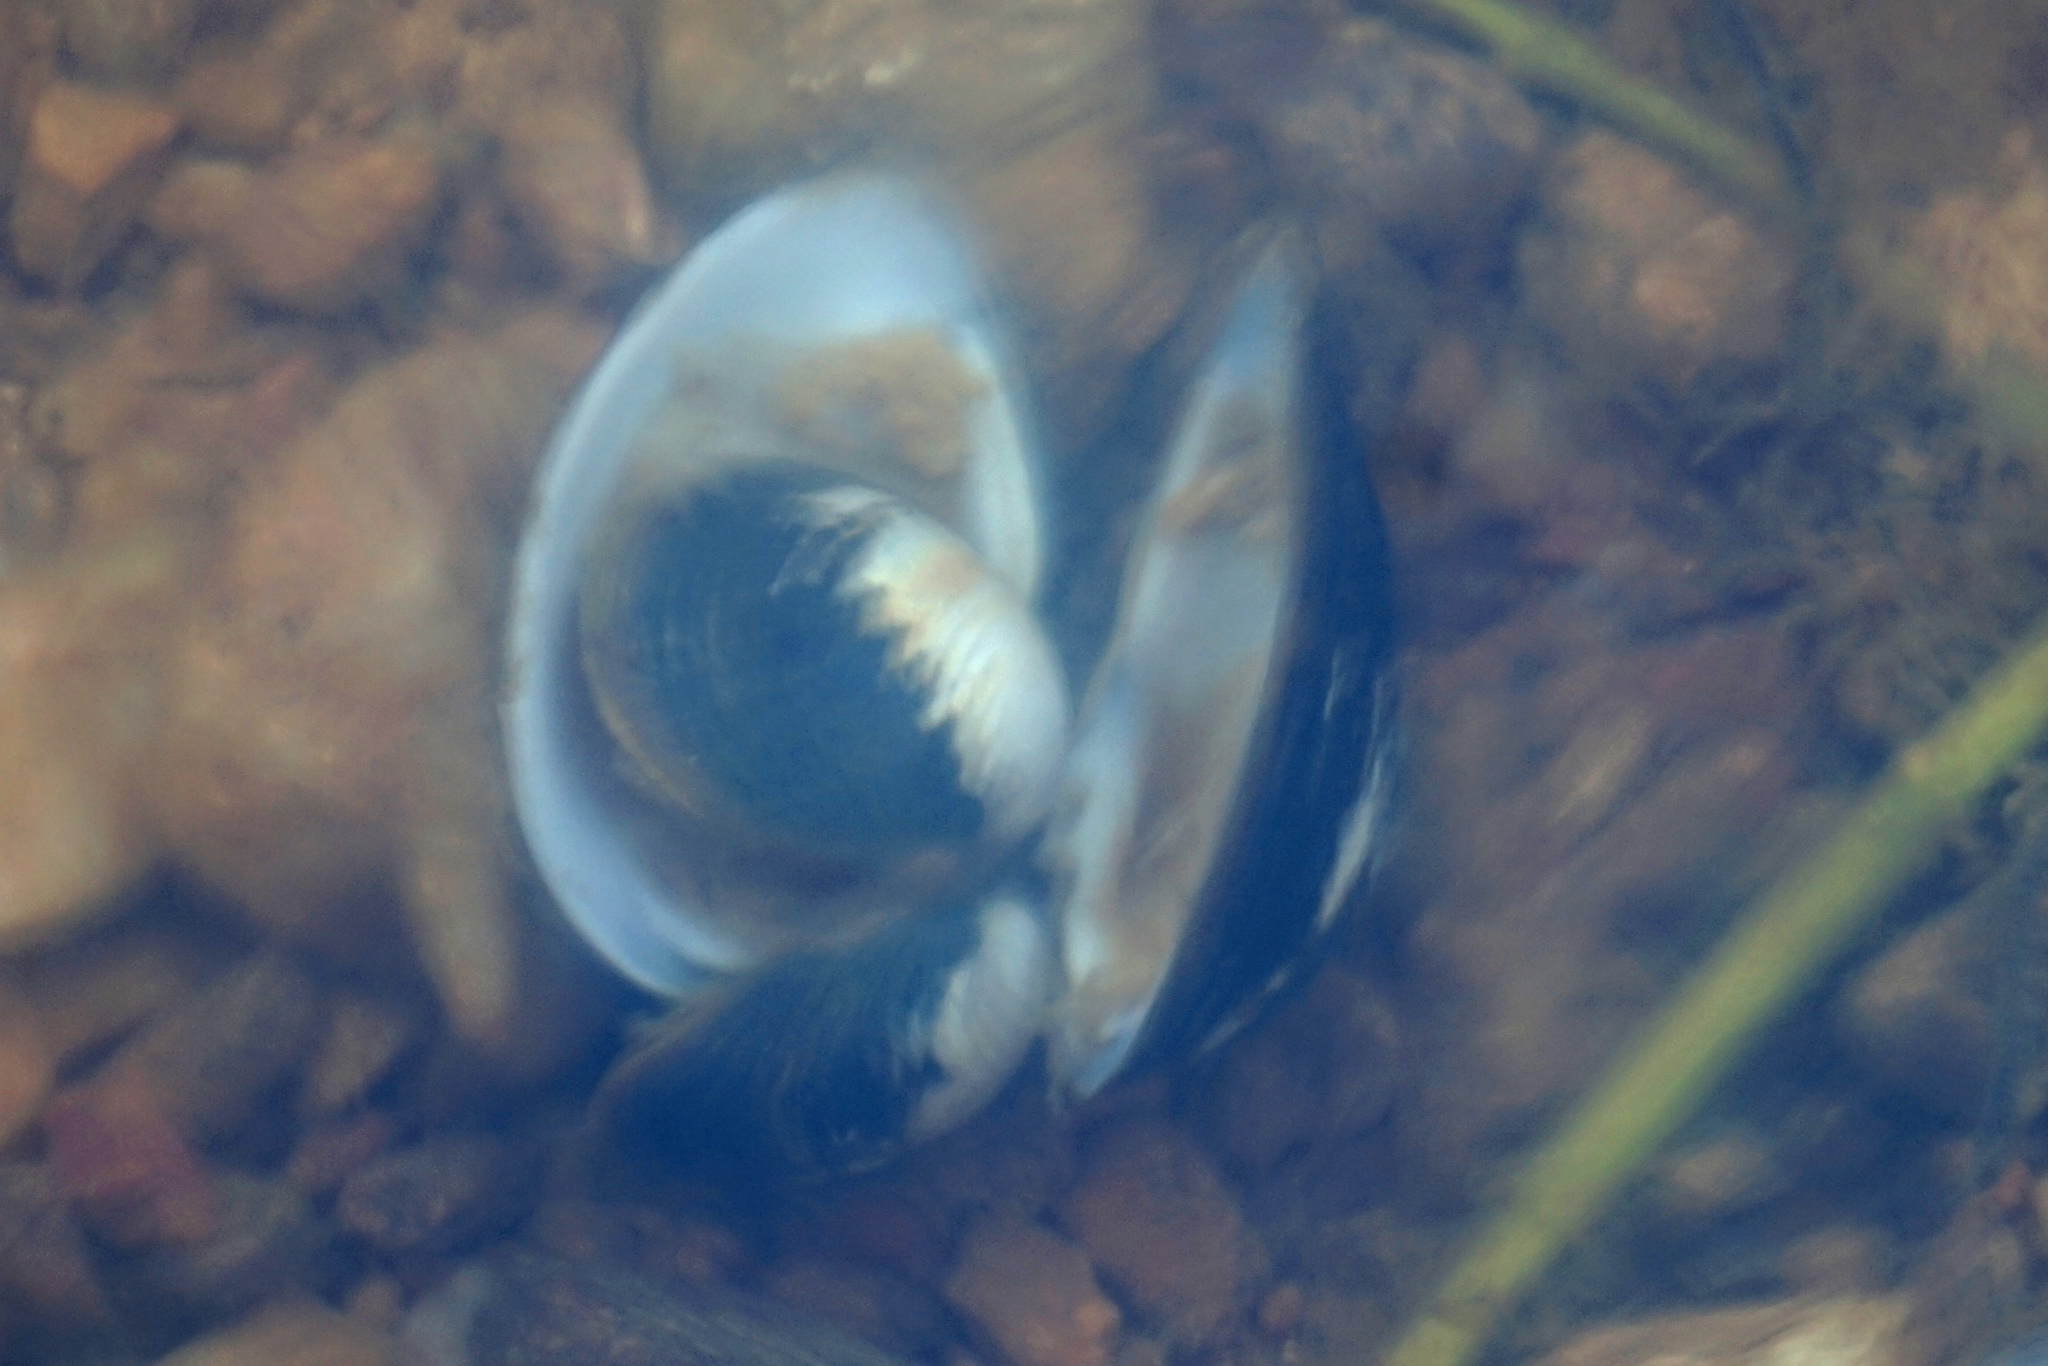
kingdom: Animalia
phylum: Mollusca
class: Bivalvia
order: Venerida
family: Cyrenidae
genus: Corbicula
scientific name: Corbicula fluminea
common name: Asian clam
